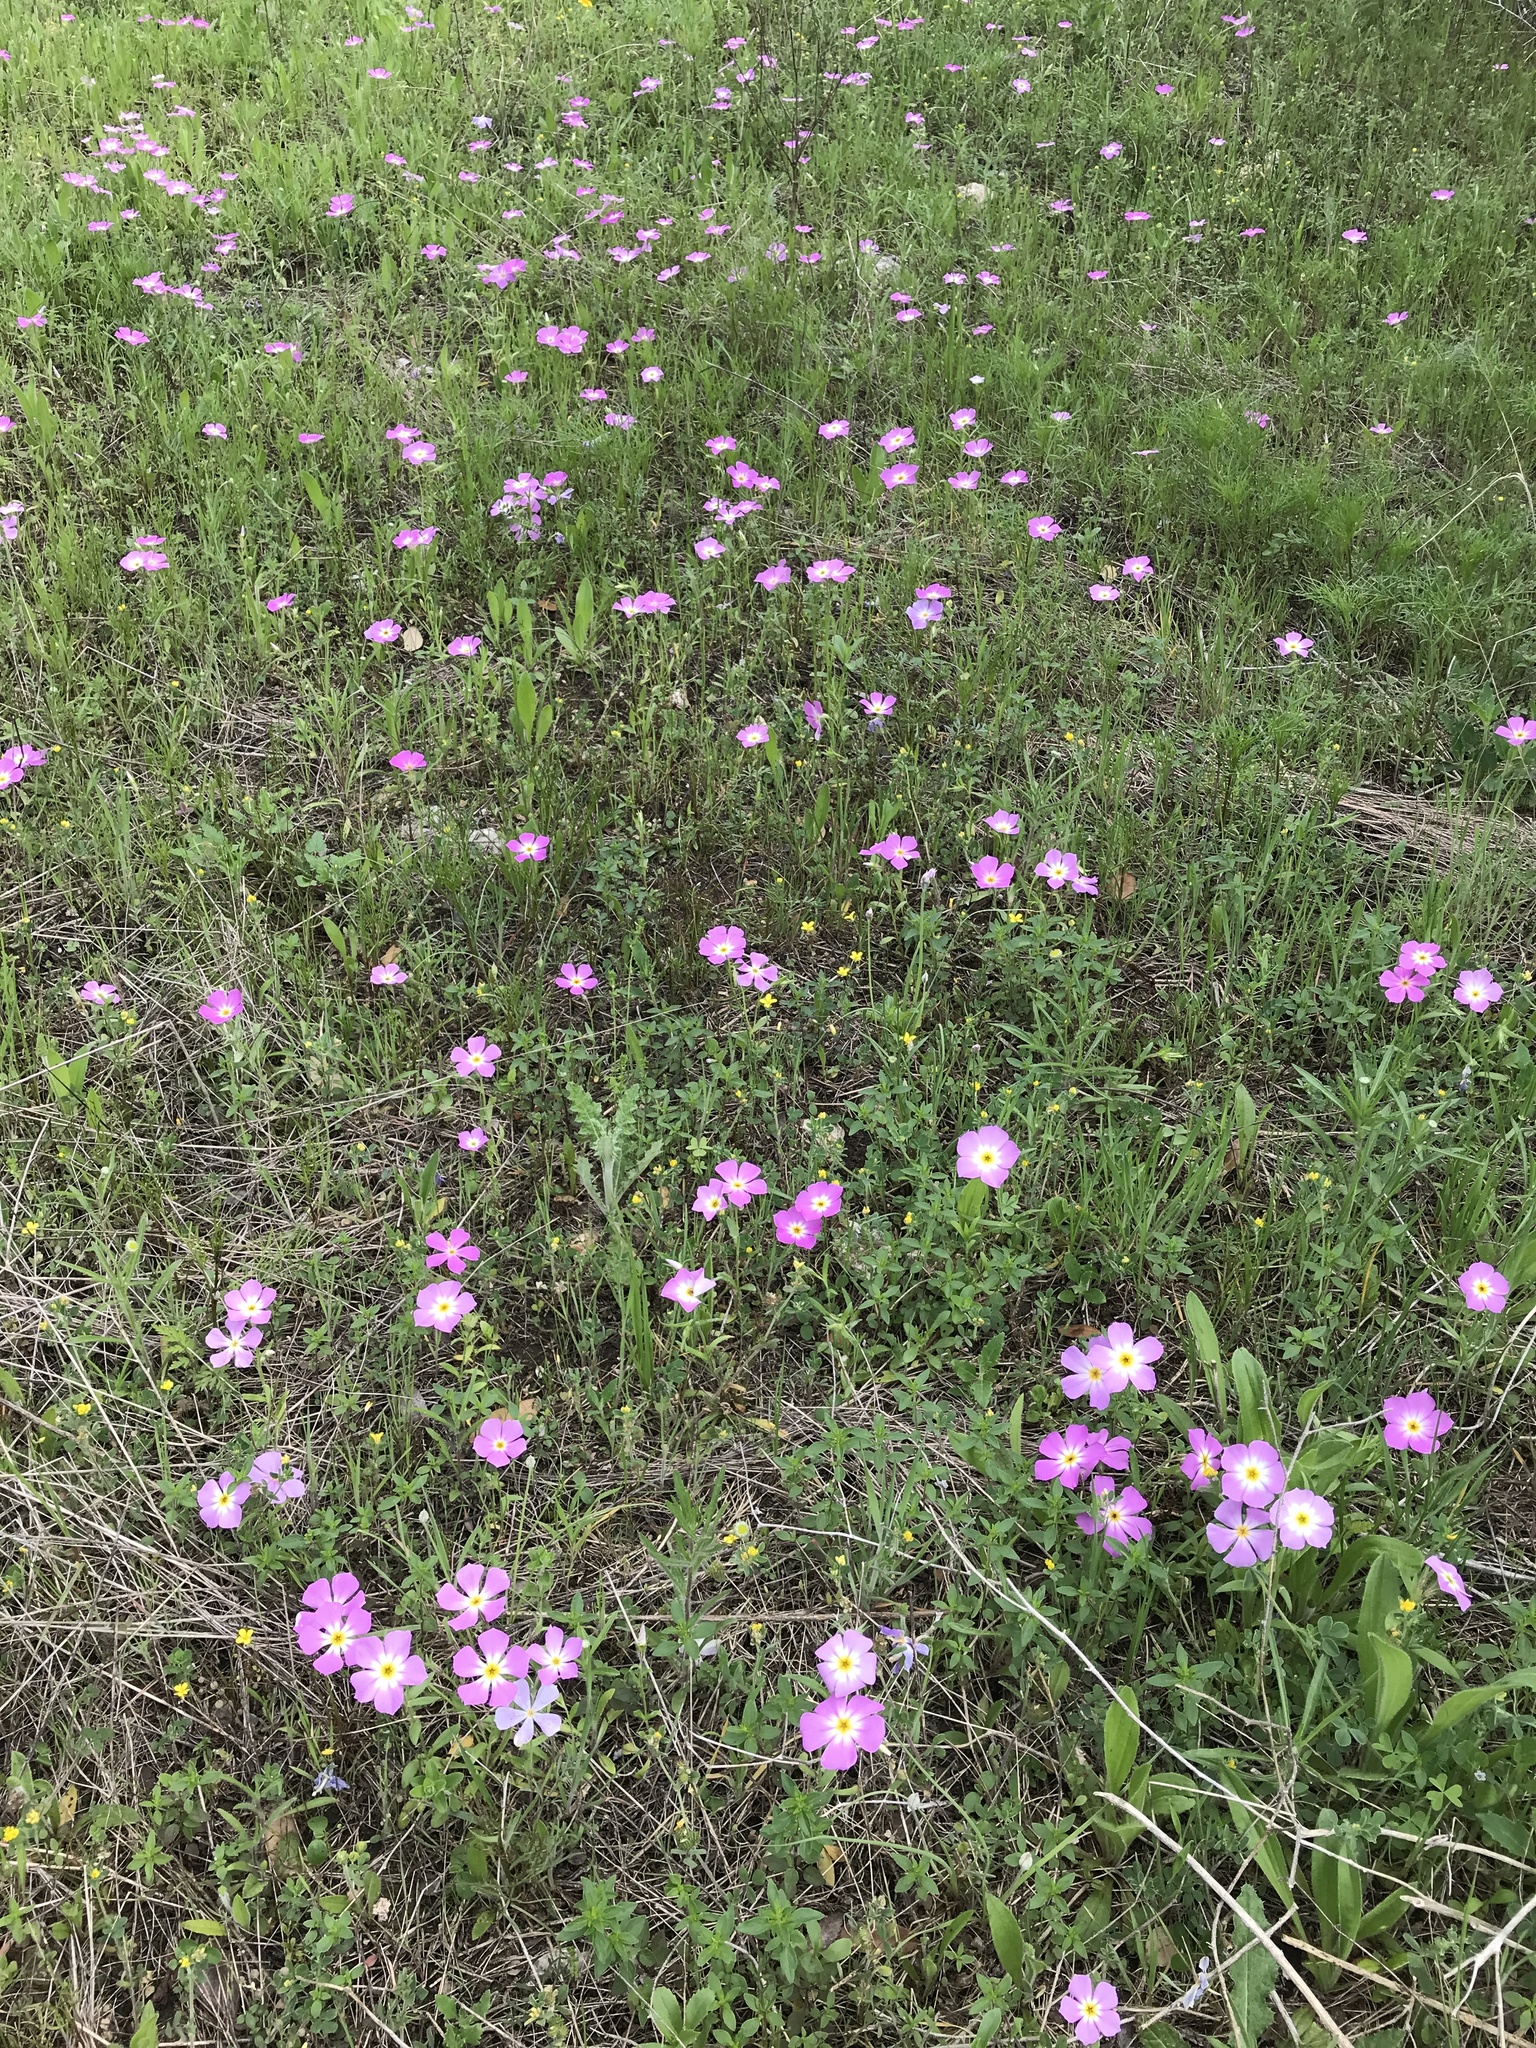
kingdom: Plantae
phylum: Tracheophyta
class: Magnoliopsida
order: Ericales
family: Polemoniaceae
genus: Phlox
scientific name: Phlox roemeriana
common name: Roemer's phlox
